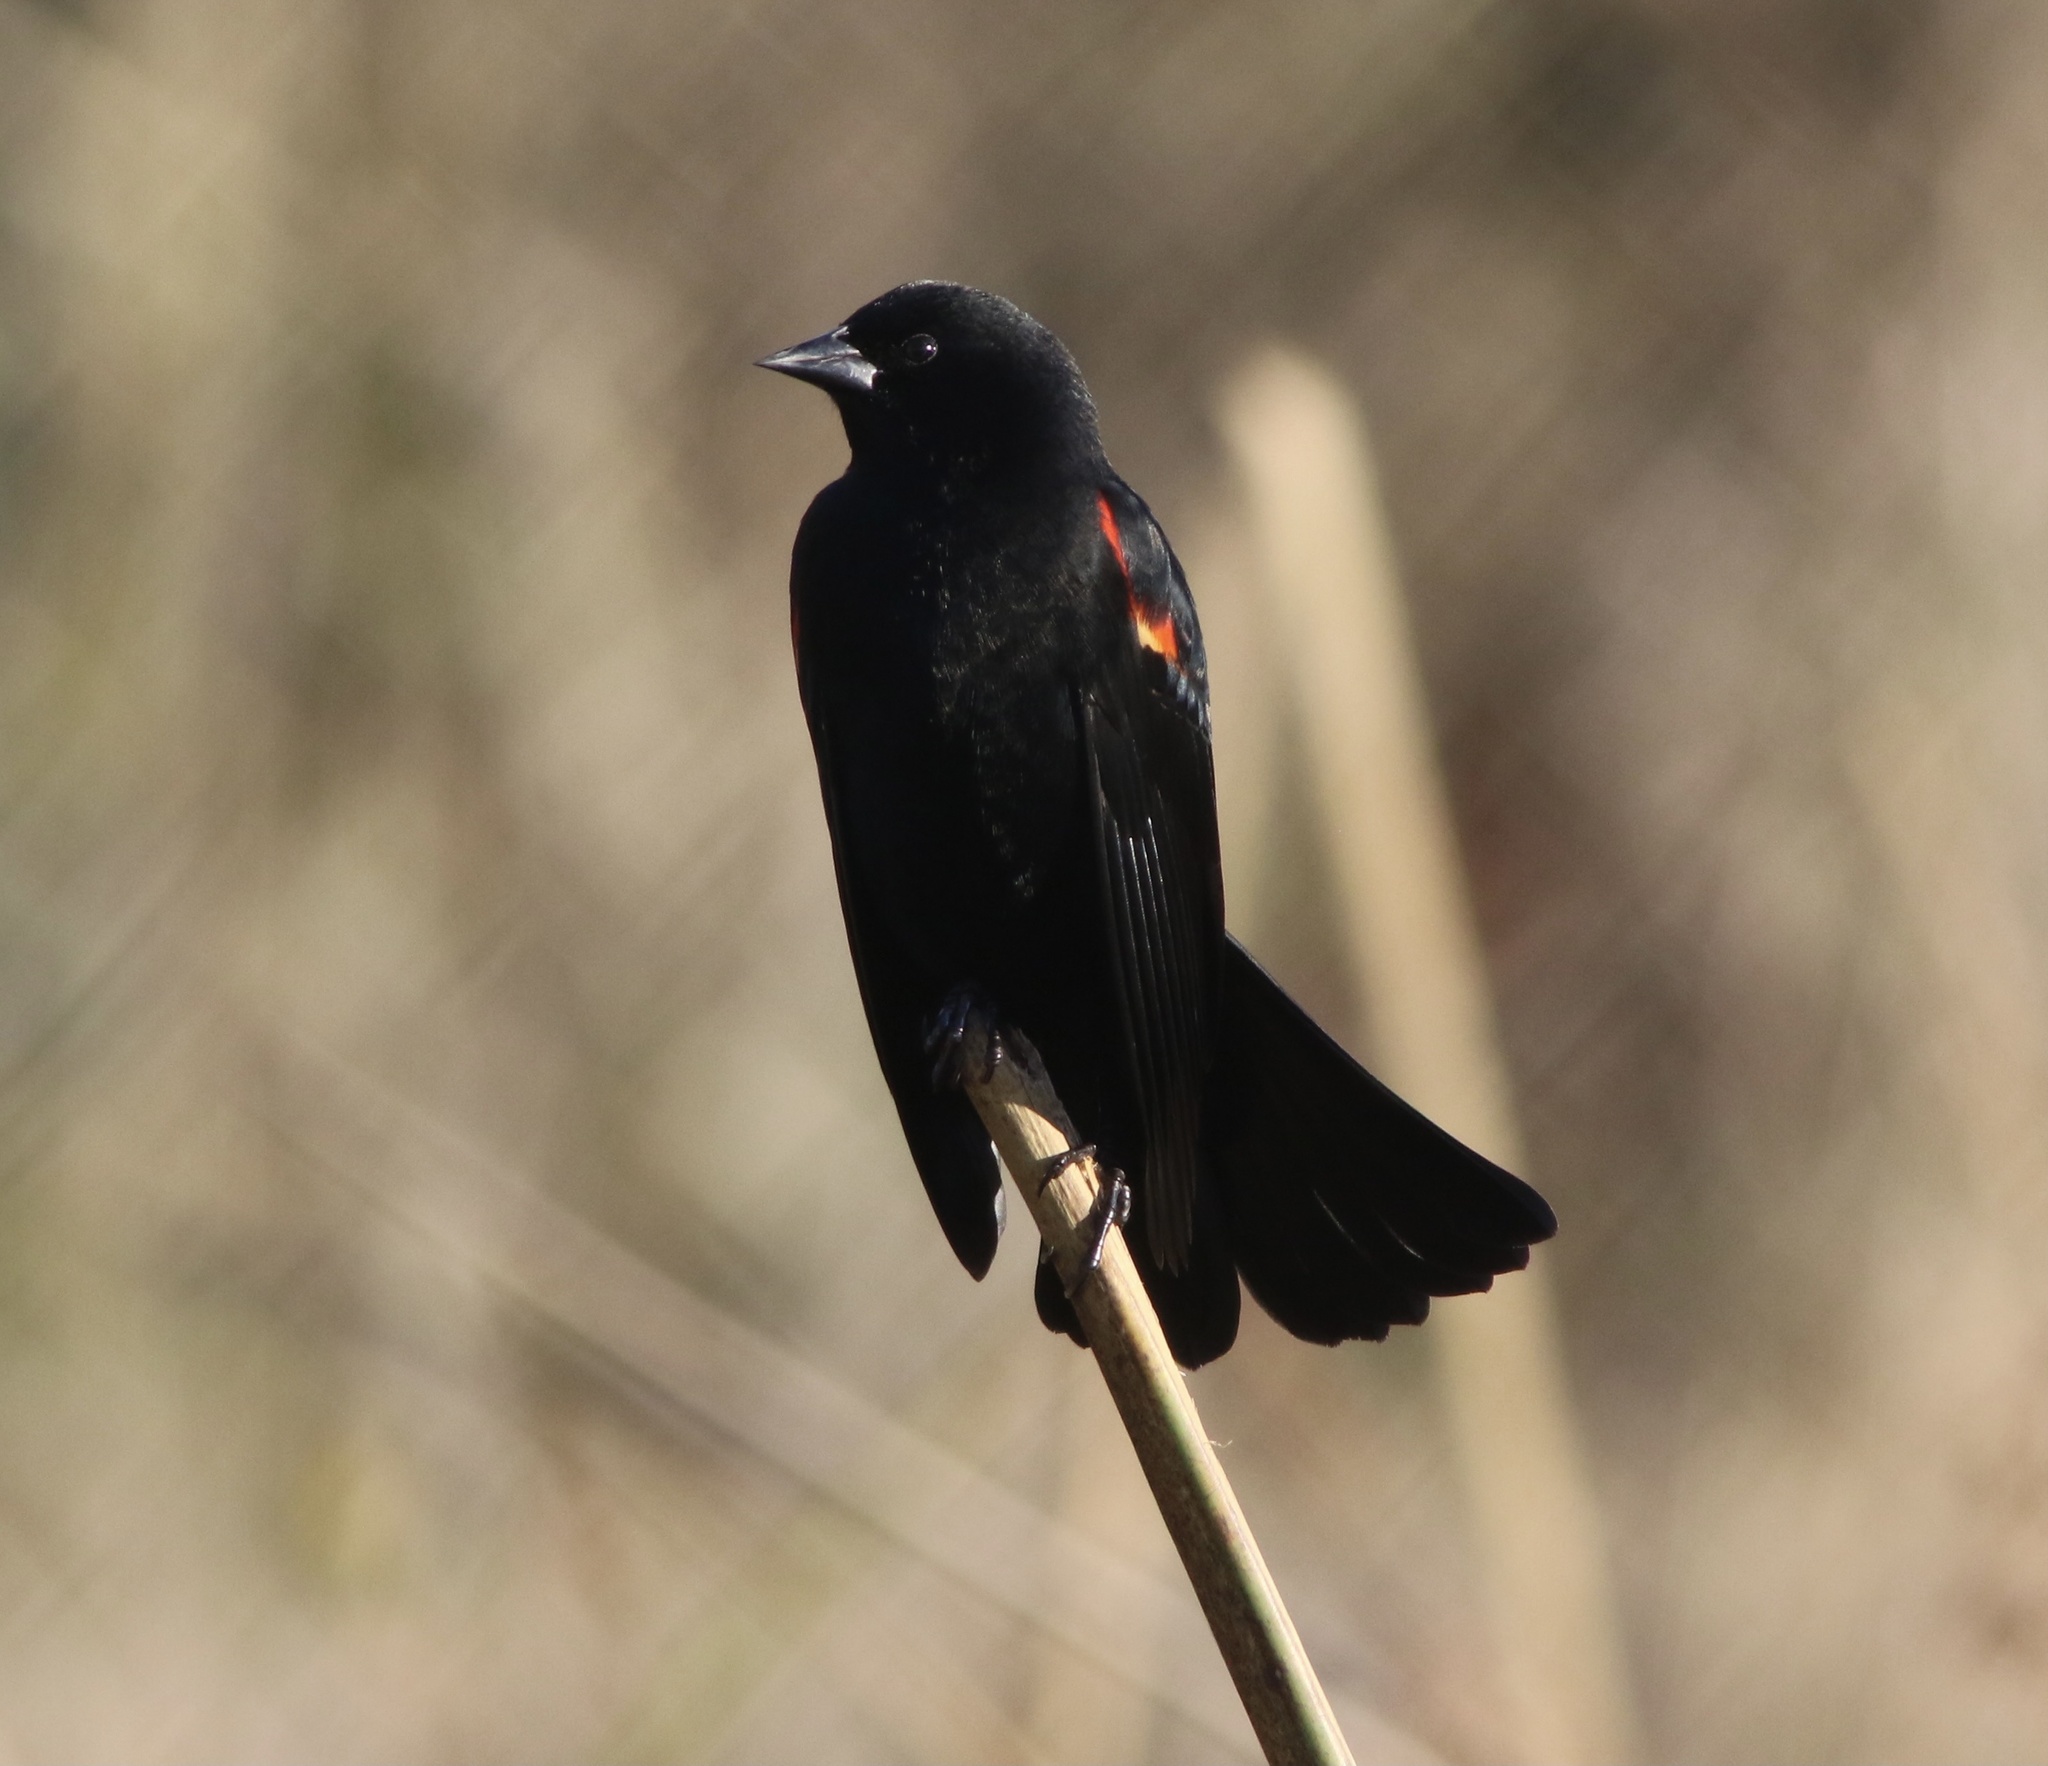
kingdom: Animalia
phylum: Chordata
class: Aves
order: Passeriformes
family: Icteridae
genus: Agelaius
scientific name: Agelaius phoeniceus
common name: Red-winged blackbird
